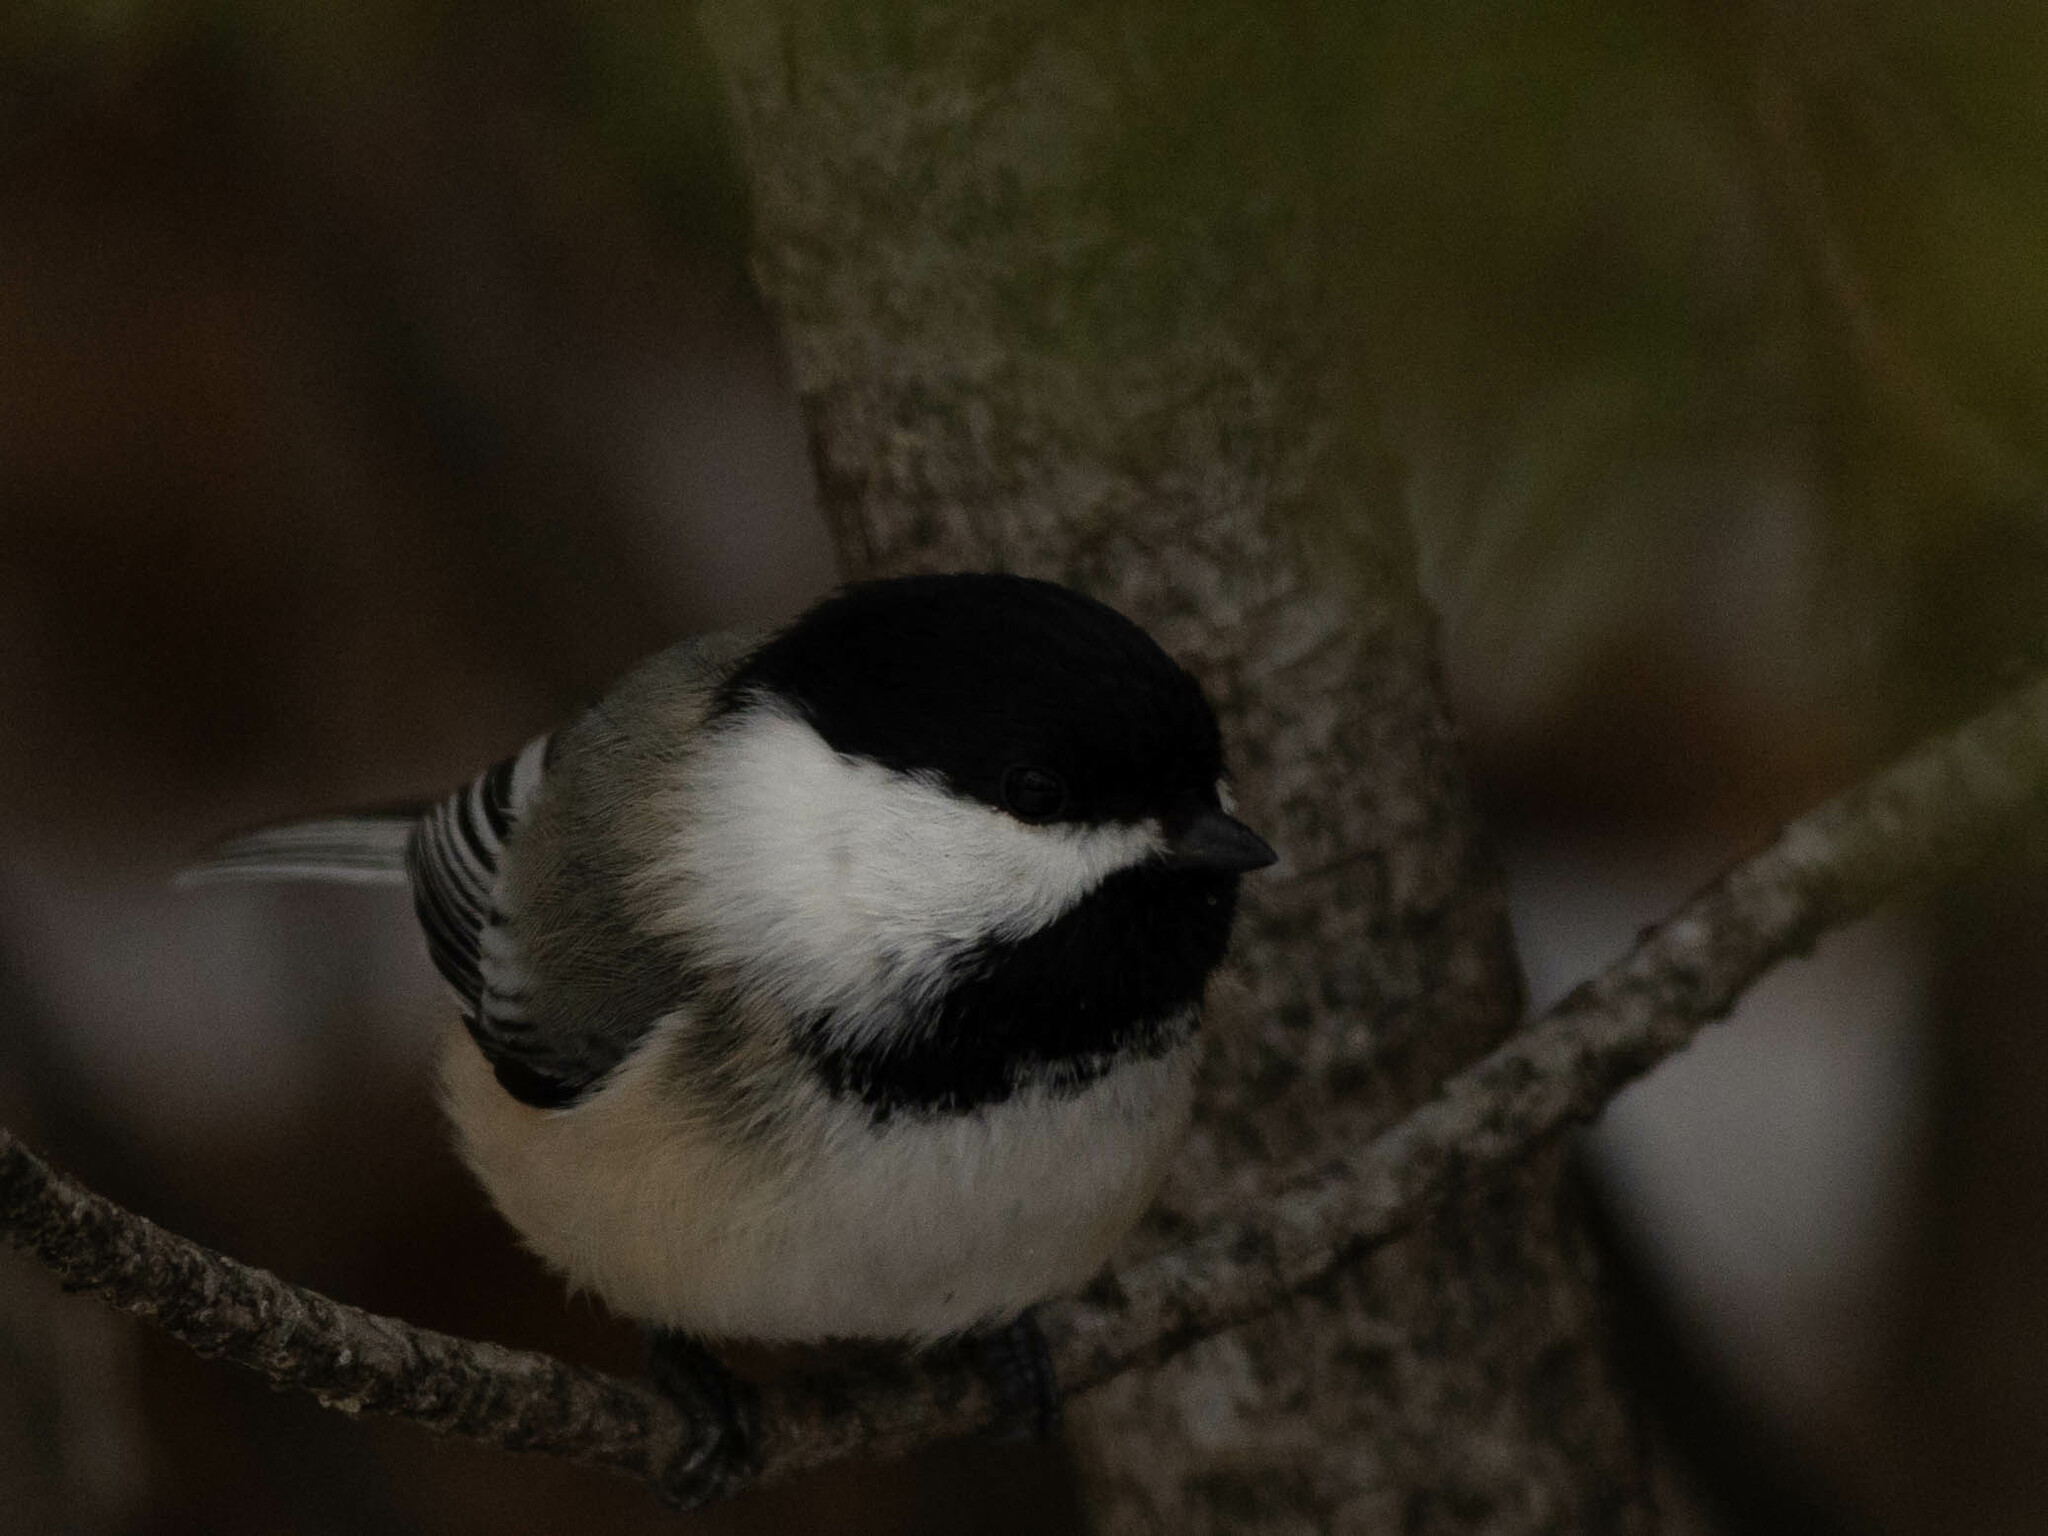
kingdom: Animalia
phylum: Chordata
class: Aves
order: Passeriformes
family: Paridae
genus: Poecile
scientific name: Poecile atricapillus
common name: Black-capped chickadee
